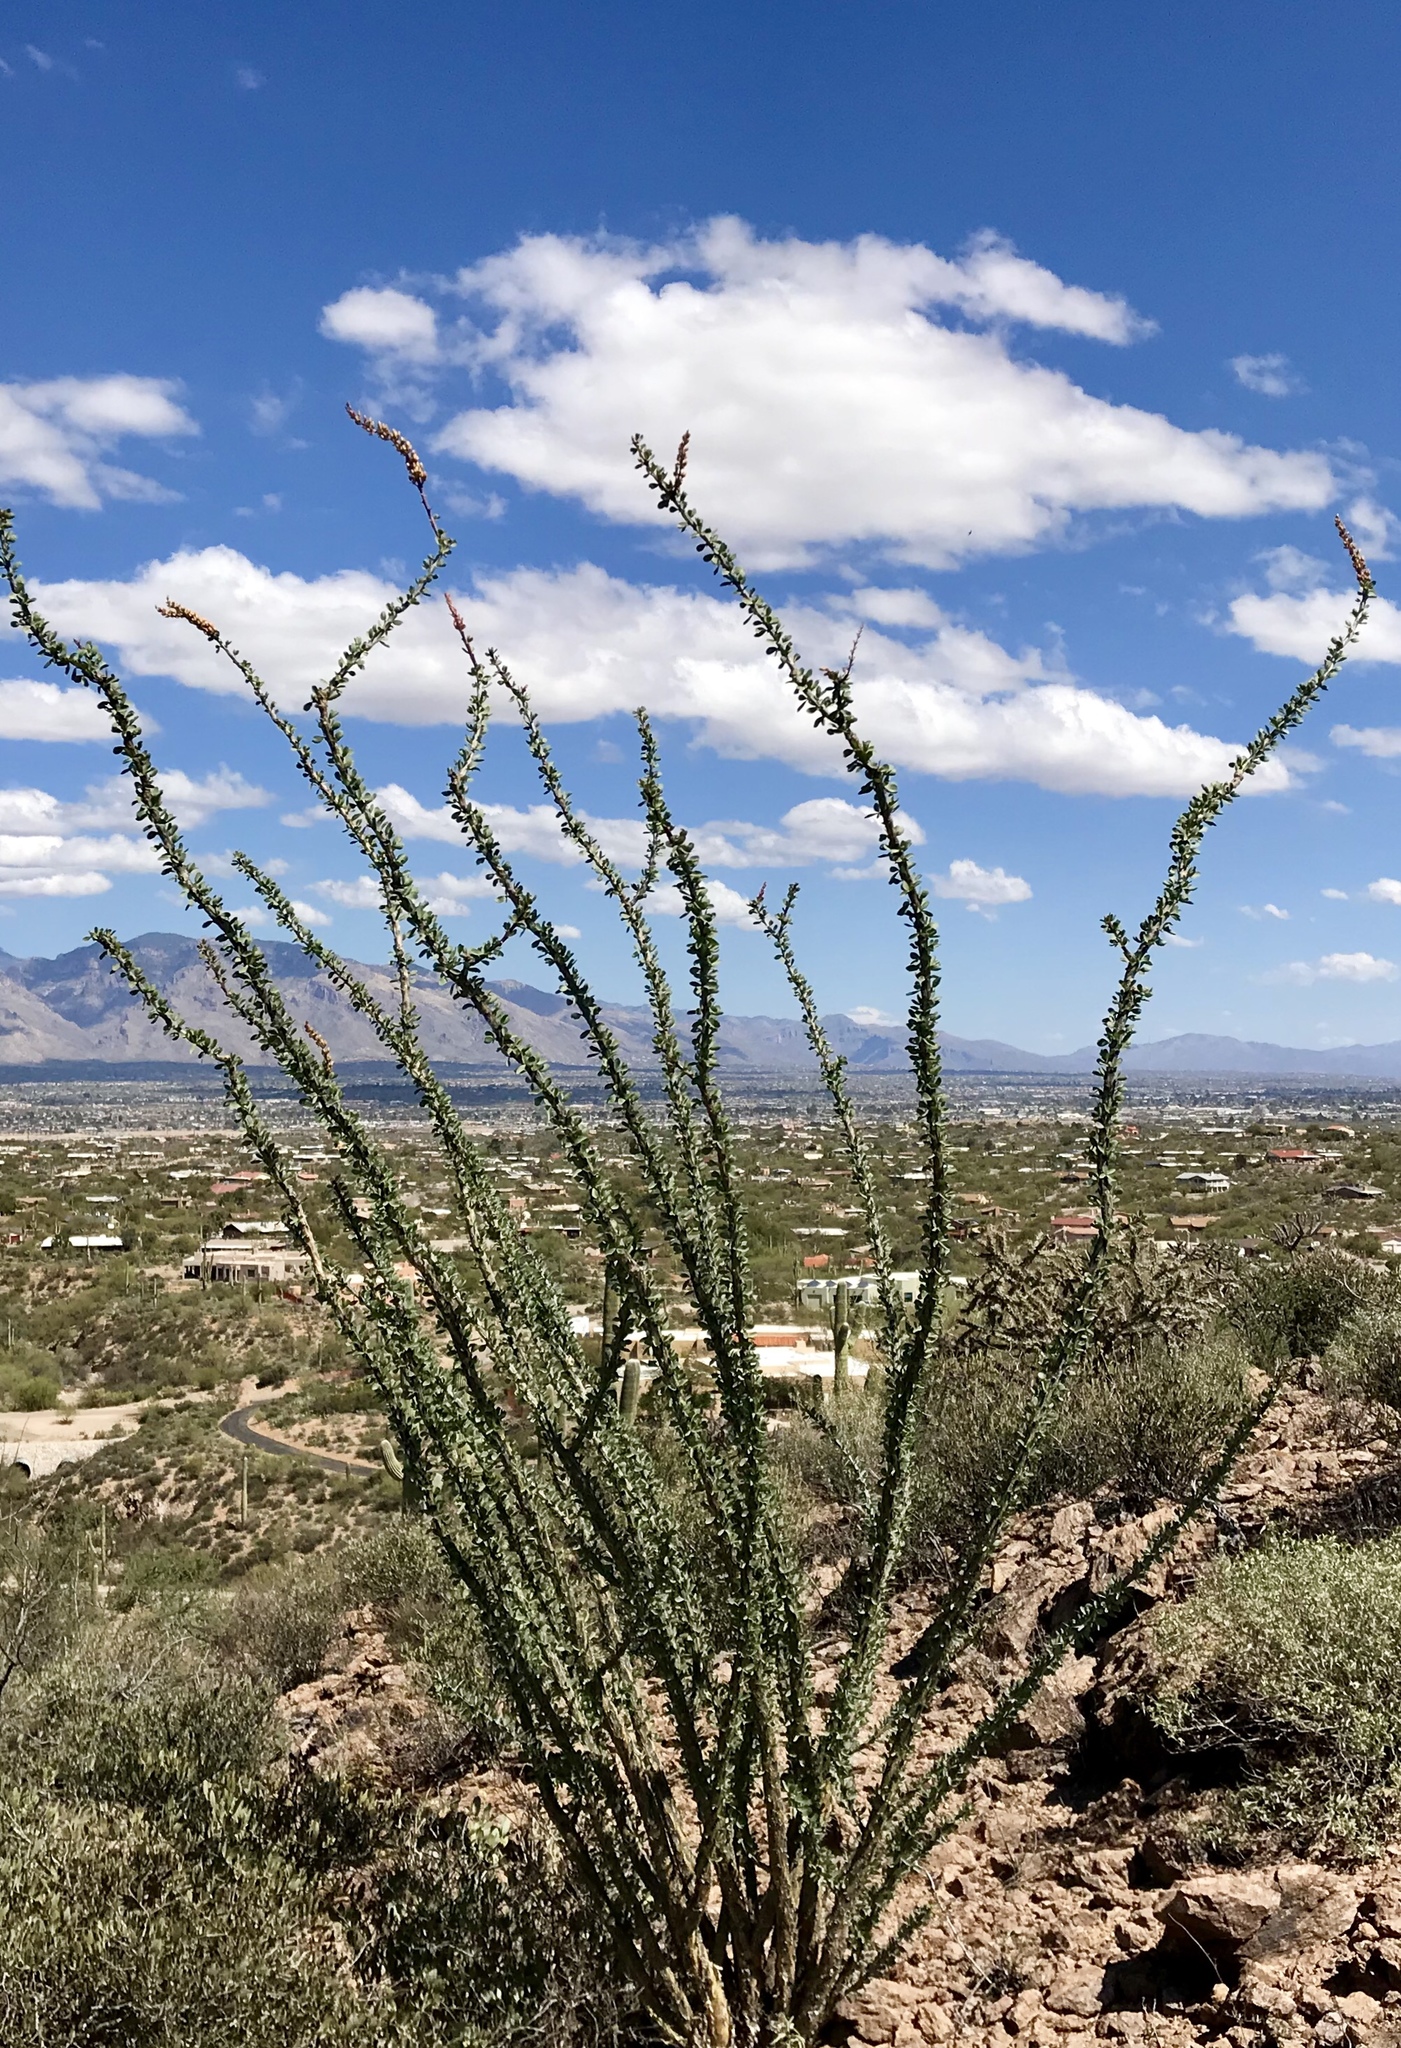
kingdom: Plantae
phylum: Tracheophyta
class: Magnoliopsida
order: Ericales
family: Fouquieriaceae
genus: Fouquieria
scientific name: Fouquieria splendens
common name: Vine-cactus
